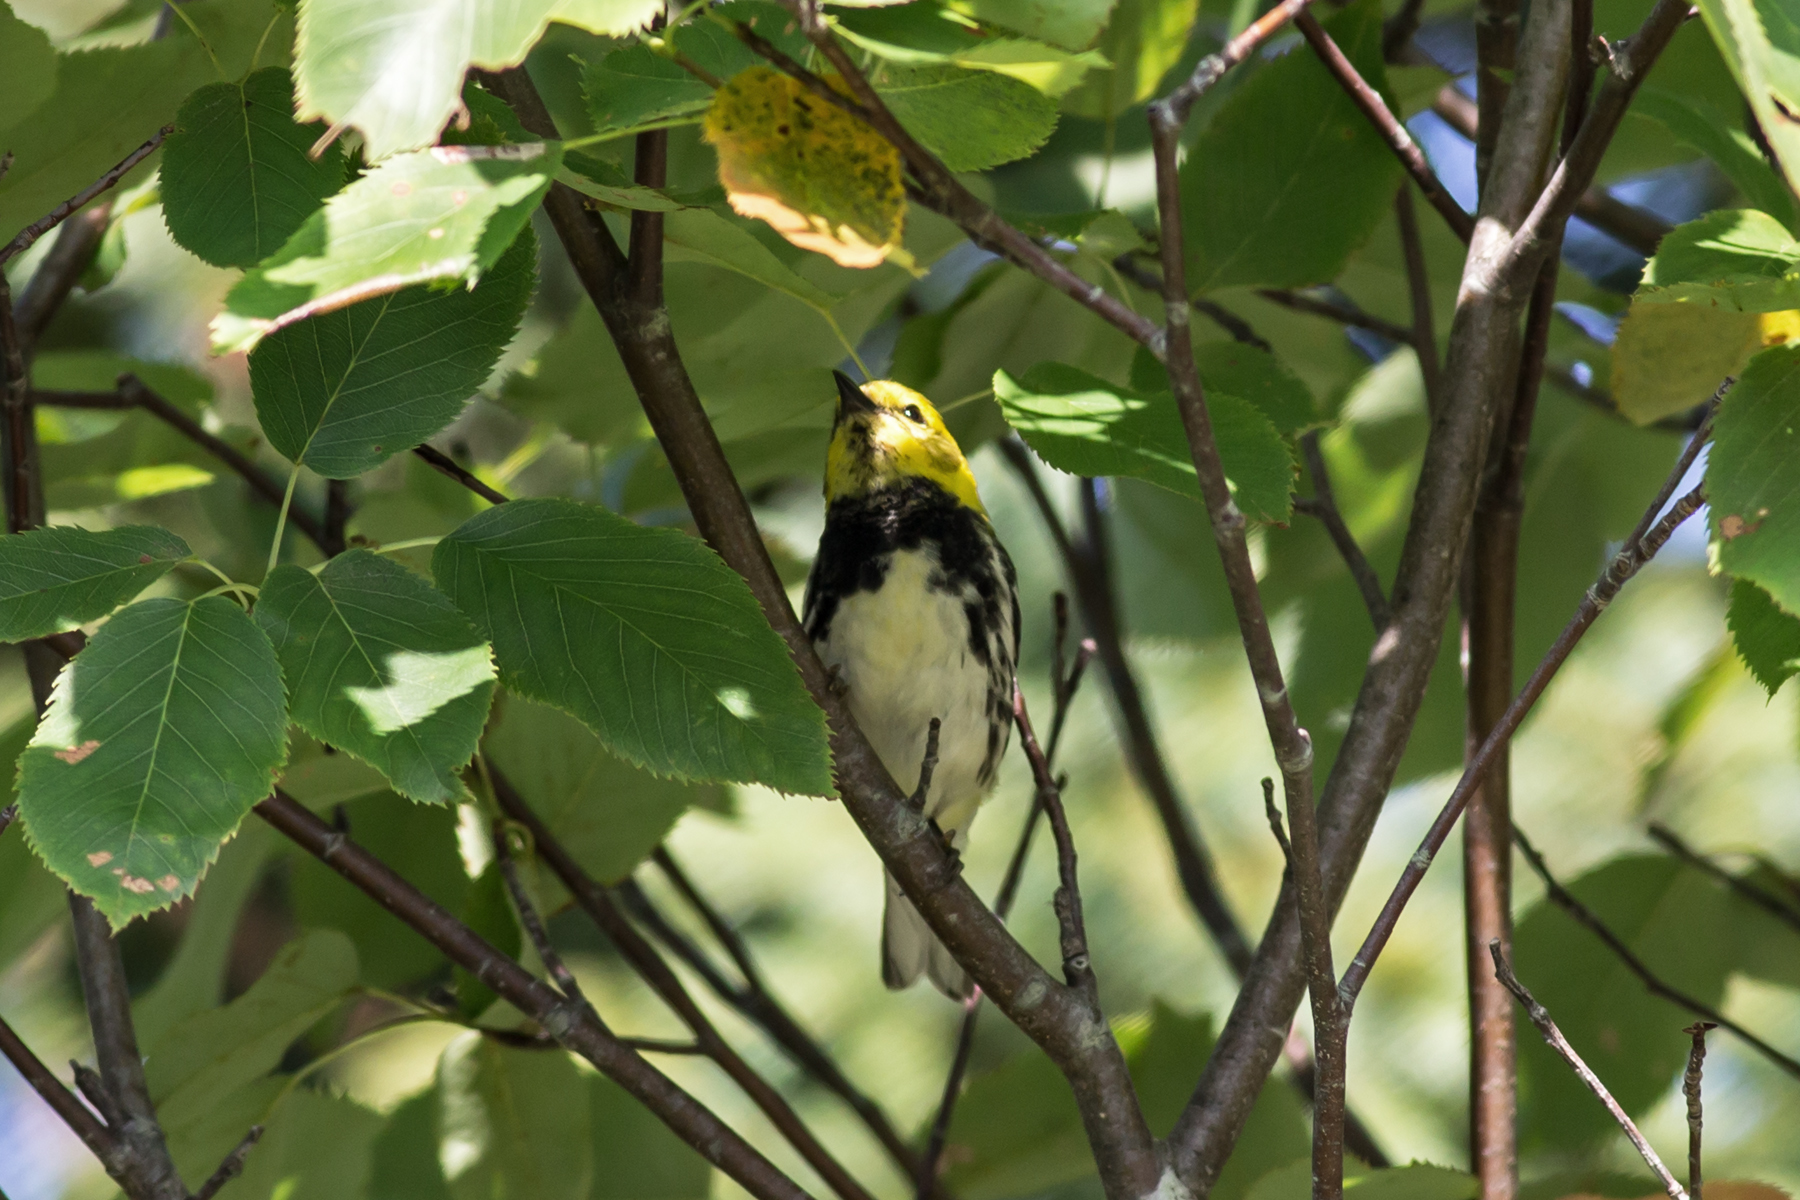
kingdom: Animalia
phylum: Chordata
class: Aves
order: Passeriformes
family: Parulidae
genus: Setophaga
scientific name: Setophaga virens
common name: Black-throated green warbler
